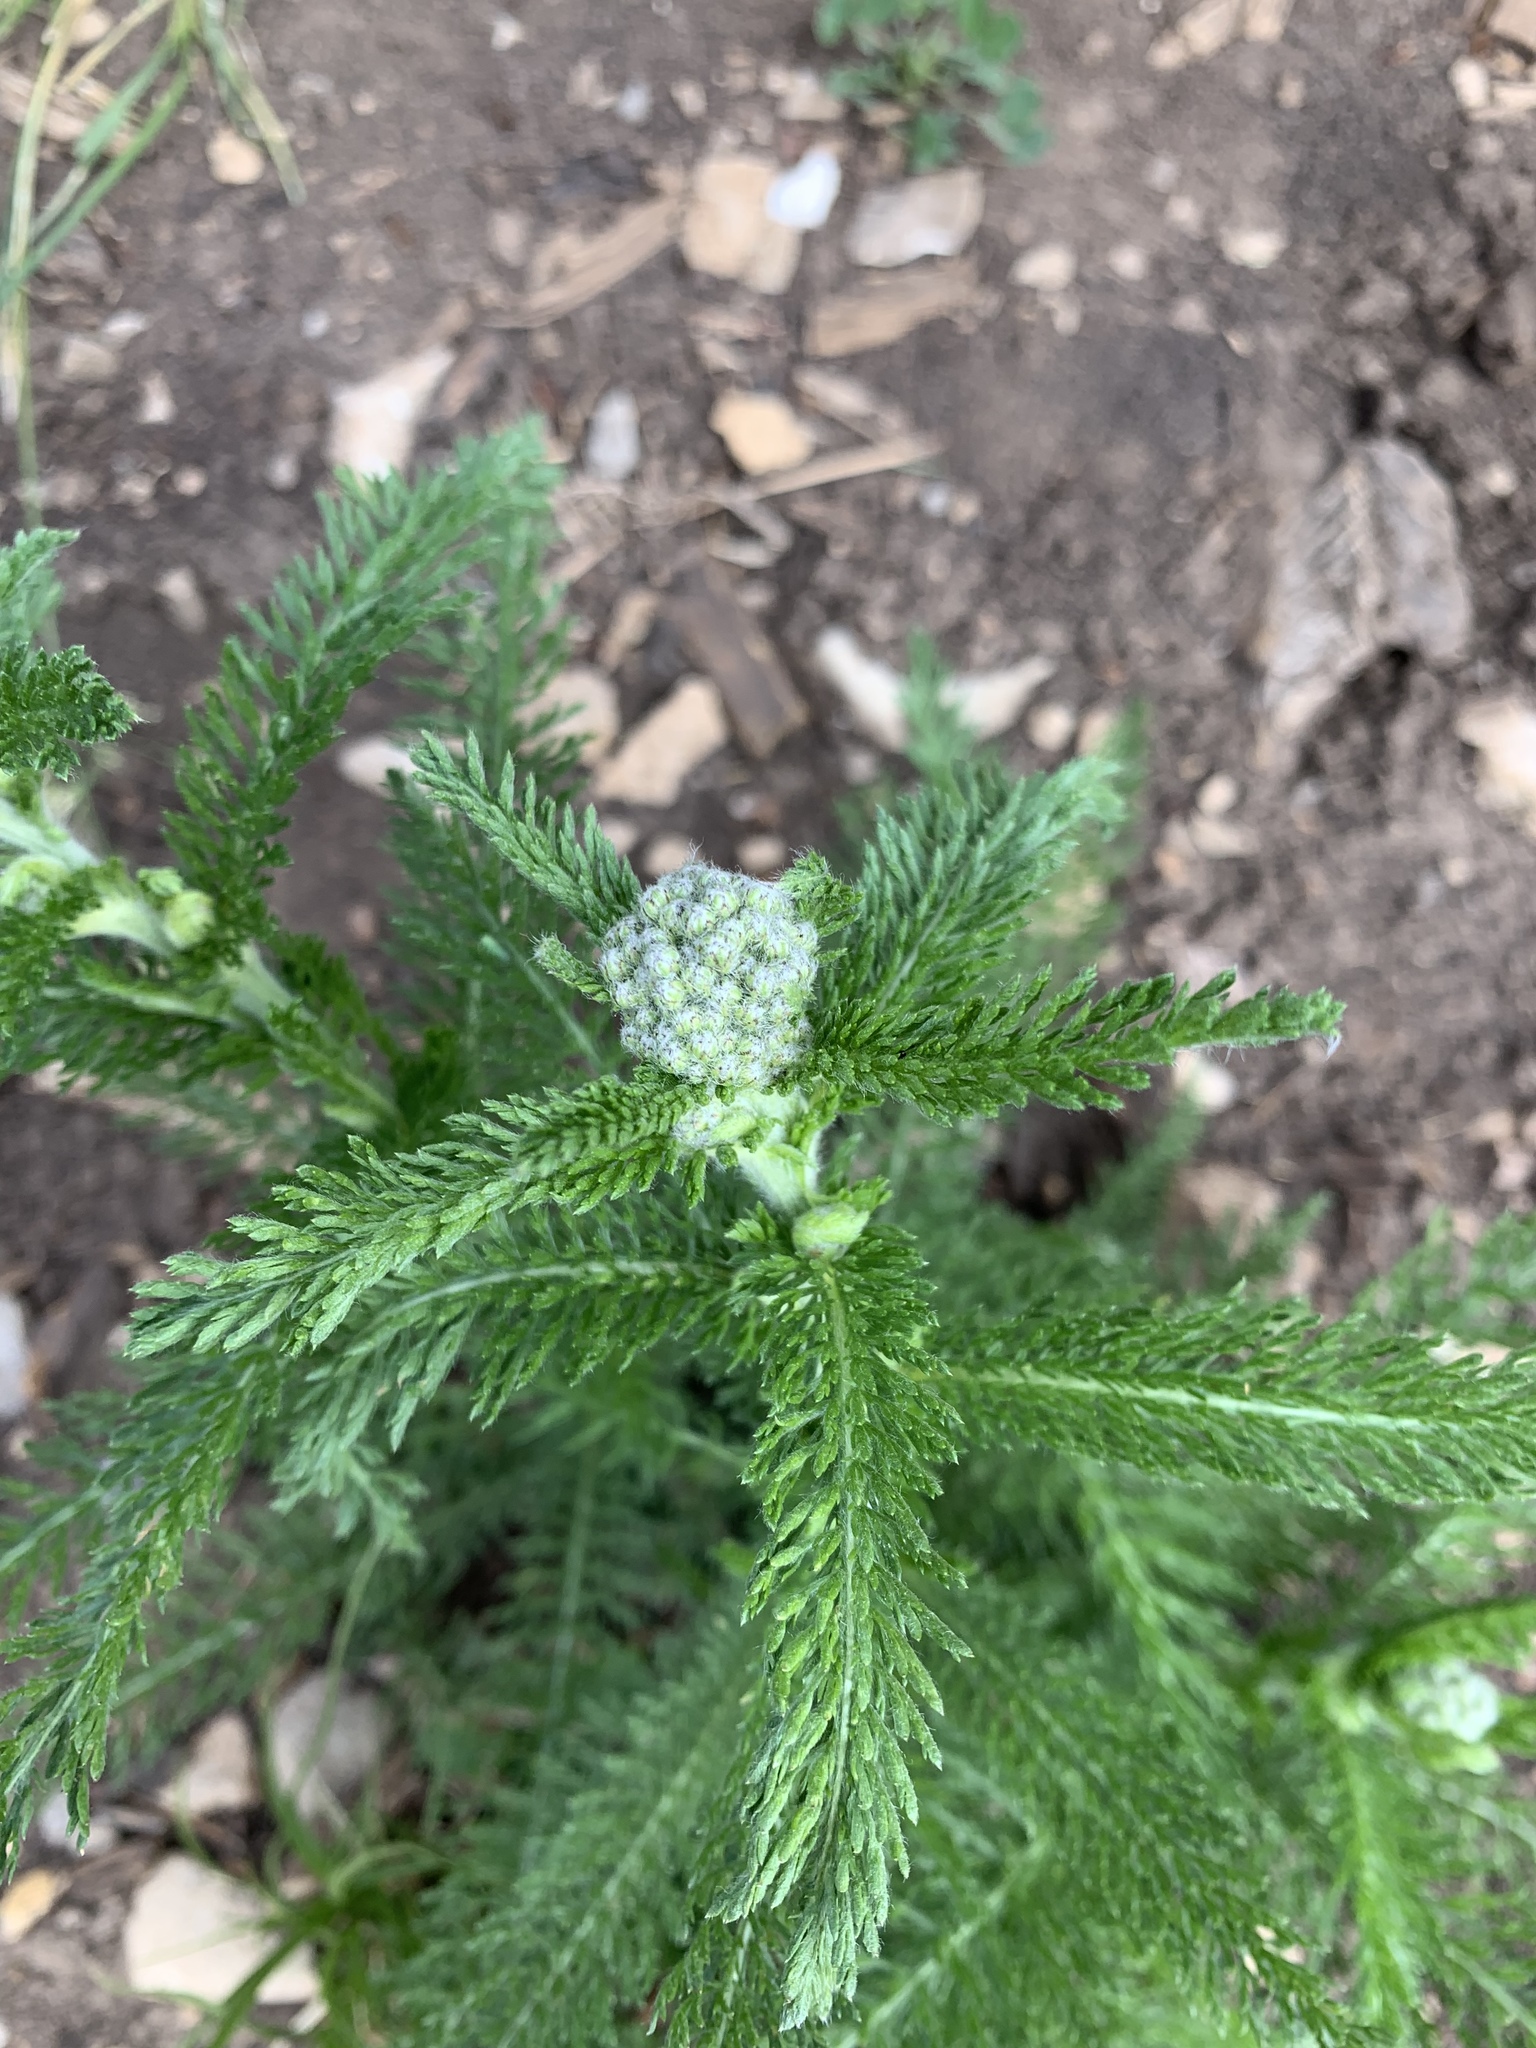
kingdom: Plantae
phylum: Tracheophyta
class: Magnoliopsida
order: Asterales
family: Asteraceae
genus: Achillea
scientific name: Achillea millefolium
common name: Yarrow
